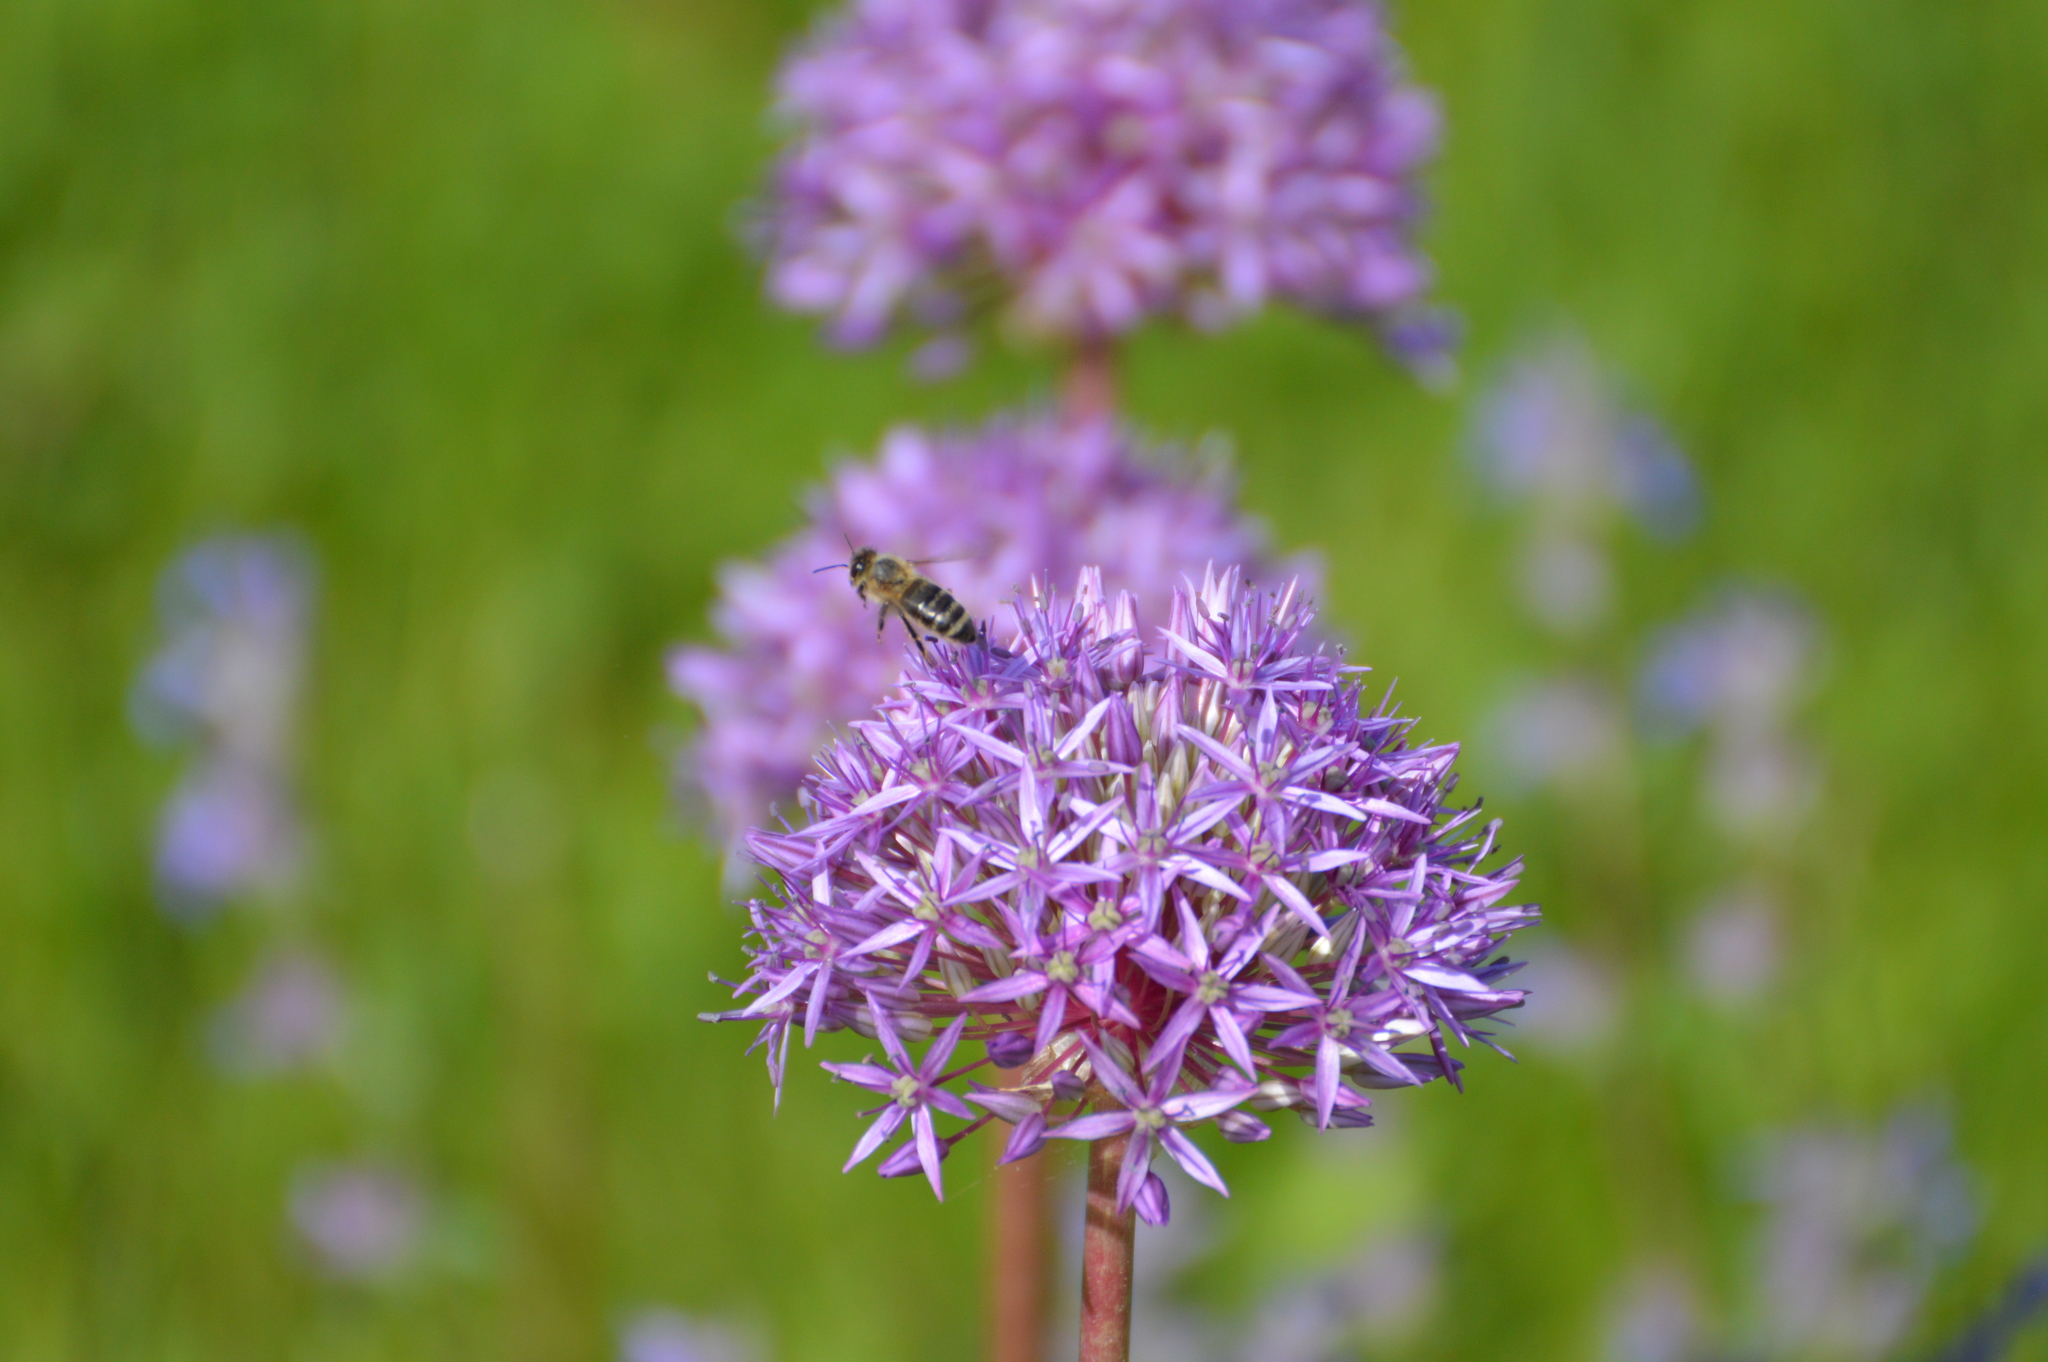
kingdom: Animalia
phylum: Arthropoda
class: Insecta
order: Hymenoptera
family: Apidae
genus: Apis
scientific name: Apis mellifera
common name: Honey bee
